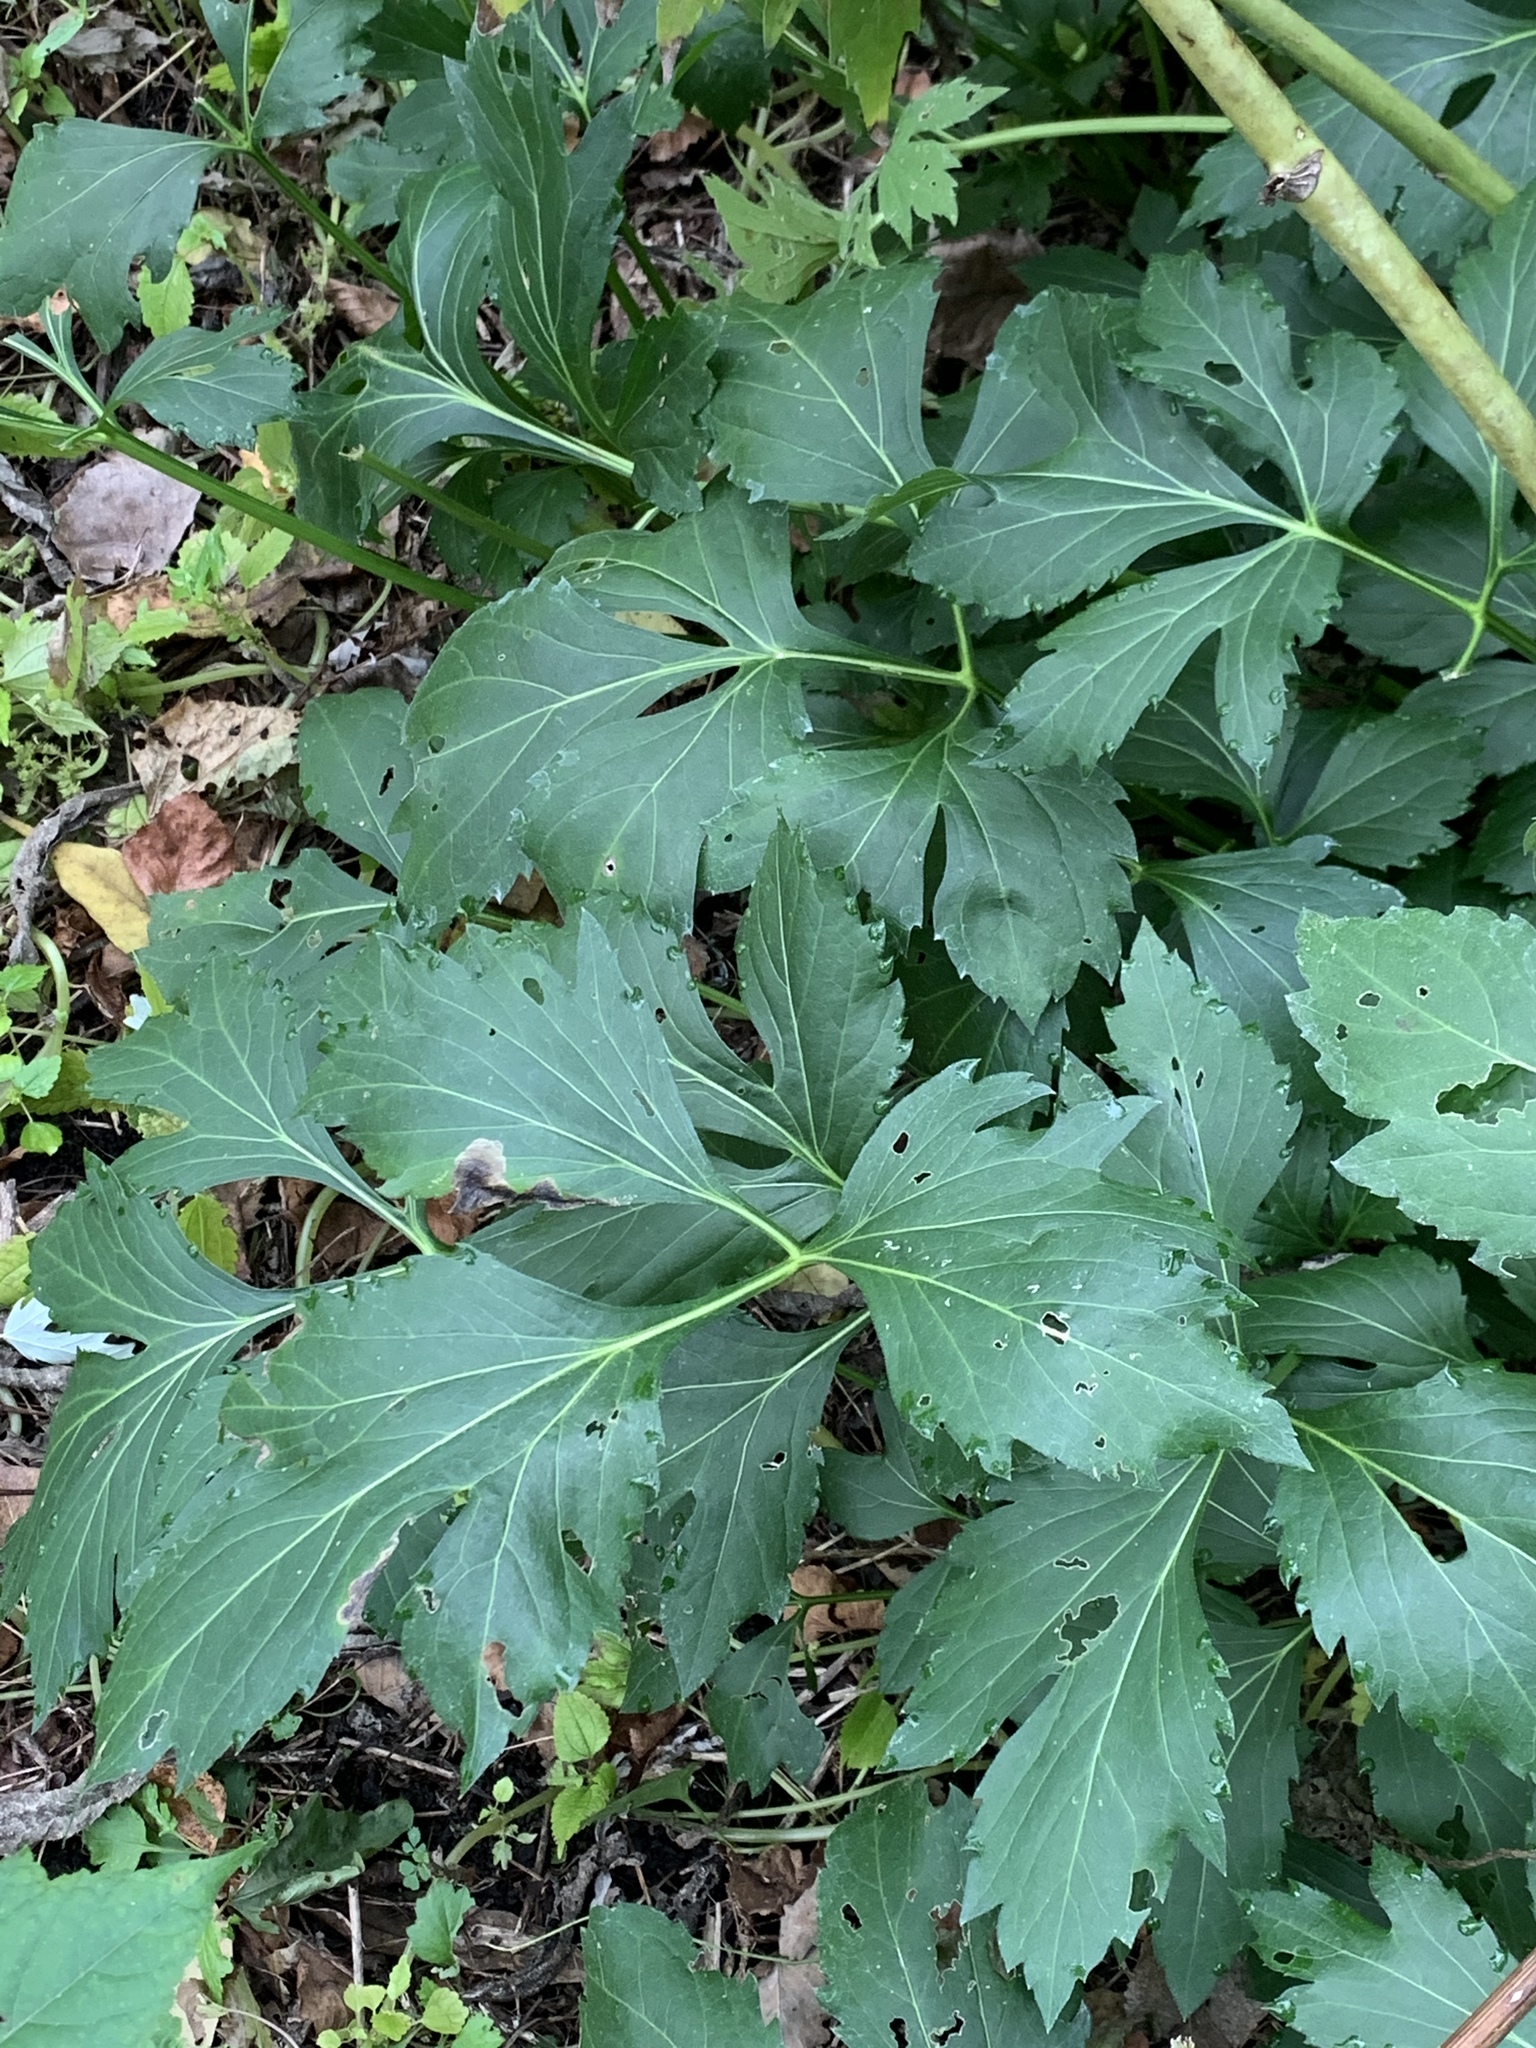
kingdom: Plantae
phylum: Tracheophyta
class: Magnoliopsida
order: Asterales
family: Asteraceae
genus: Rudbeckia
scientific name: Rudbeckia laciniata
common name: Coneflower
